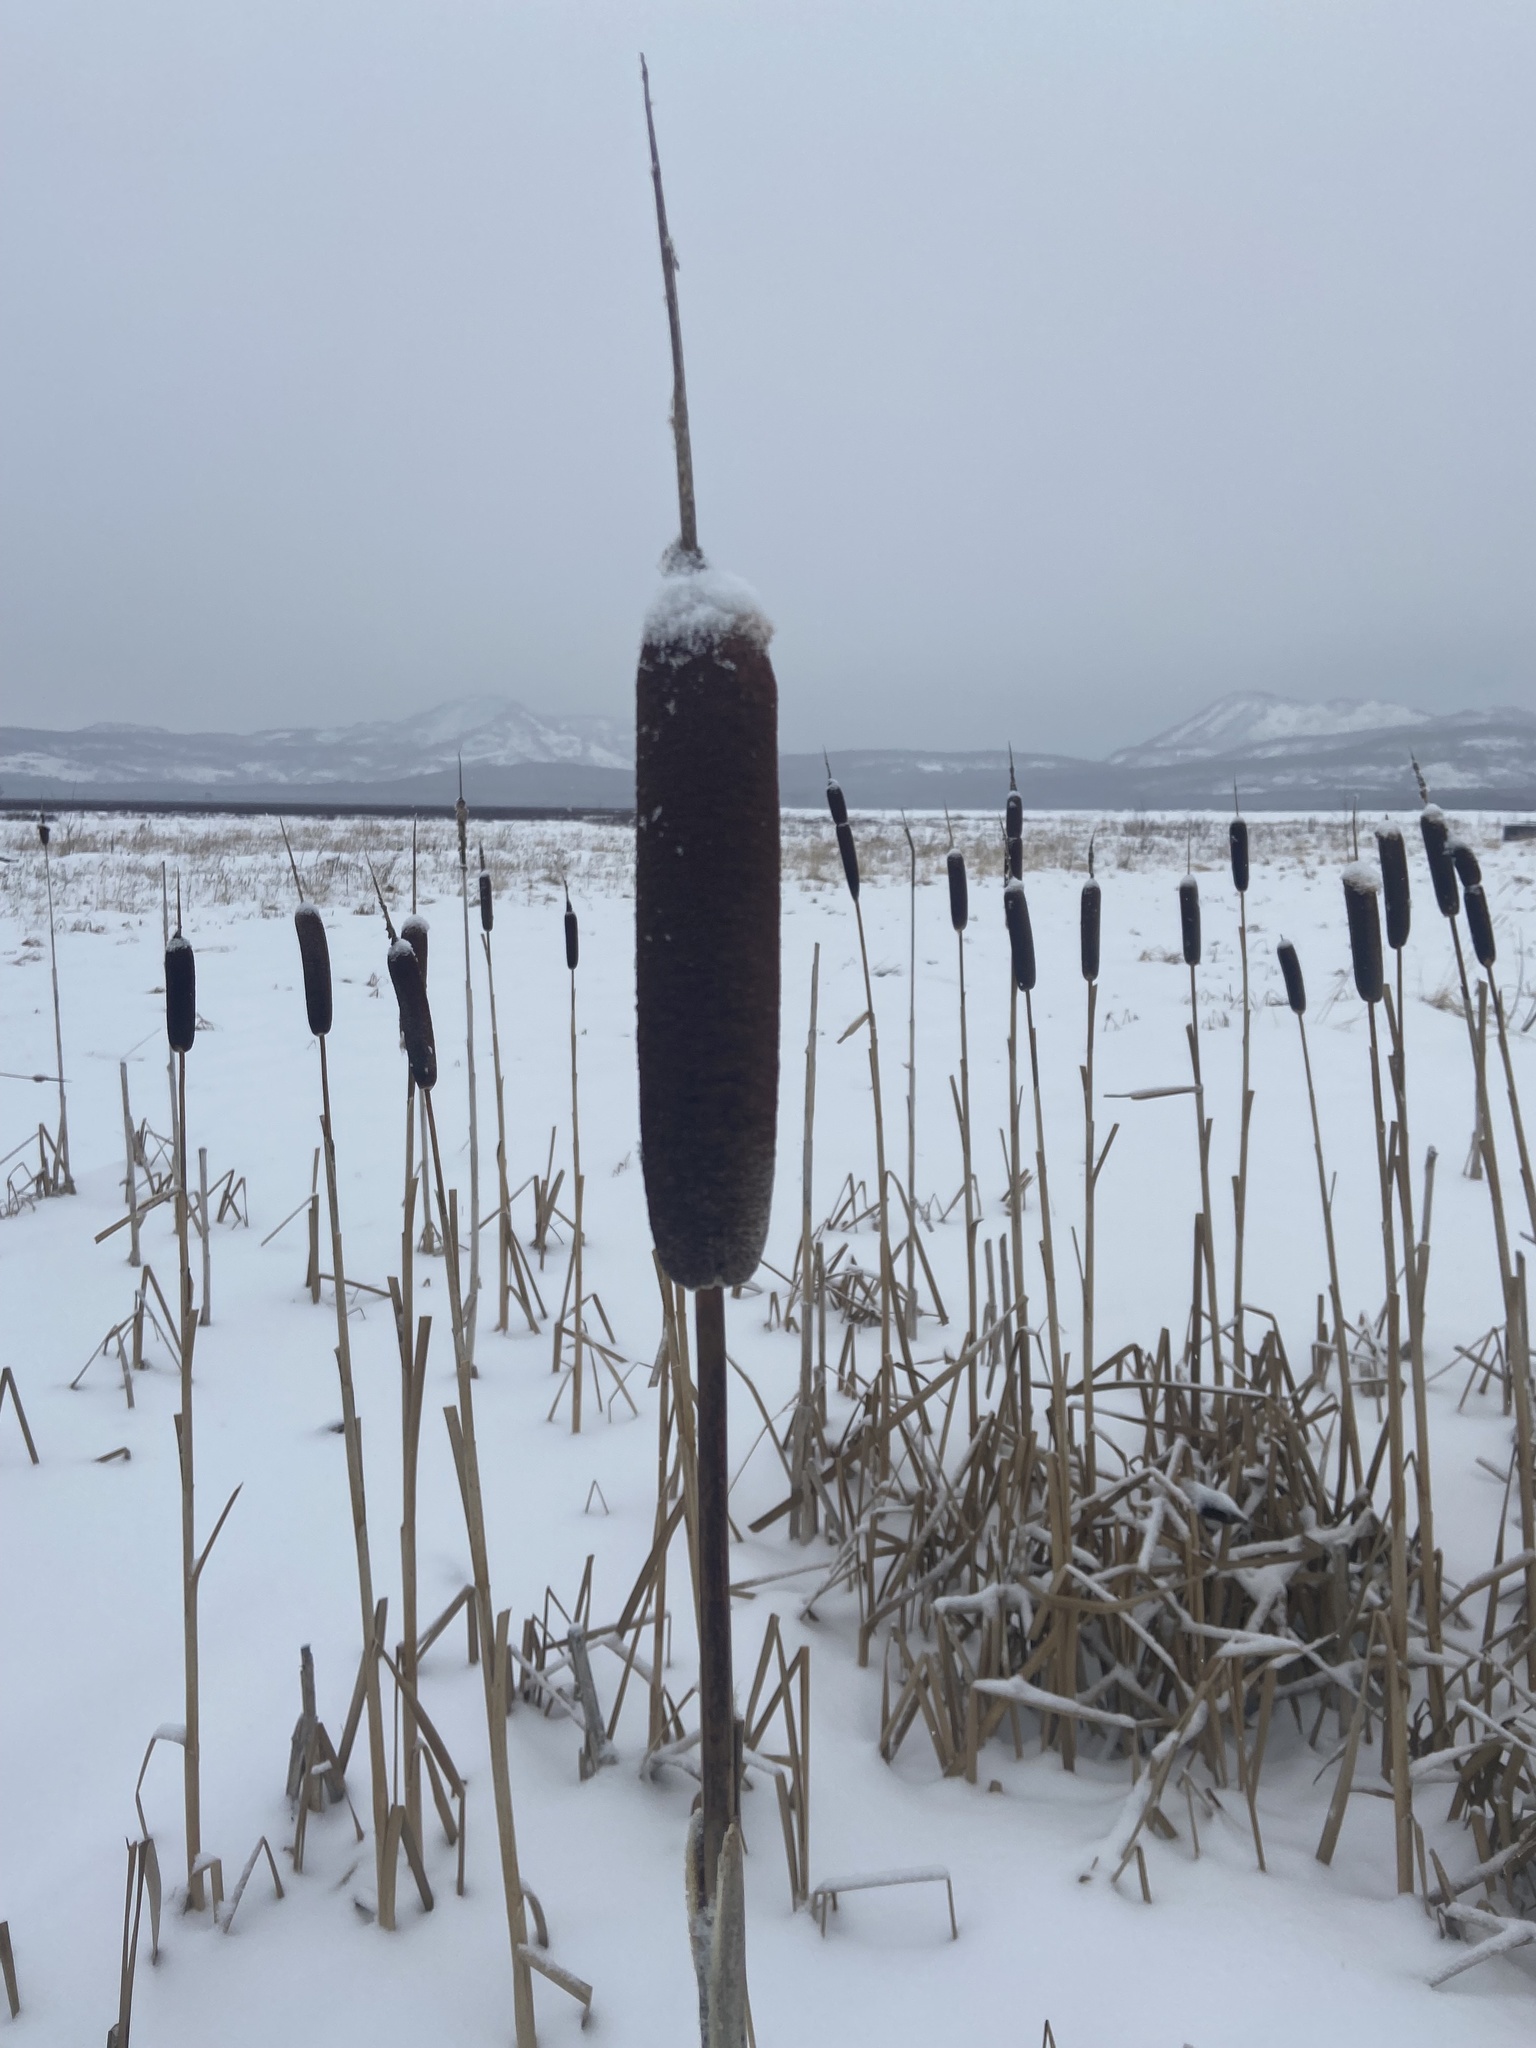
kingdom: Plantae
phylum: Tracheophyta
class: Liliopsida
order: Poales
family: Typhaceae
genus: Typha
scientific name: Typha latifolia
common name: Broadleaf cattail
